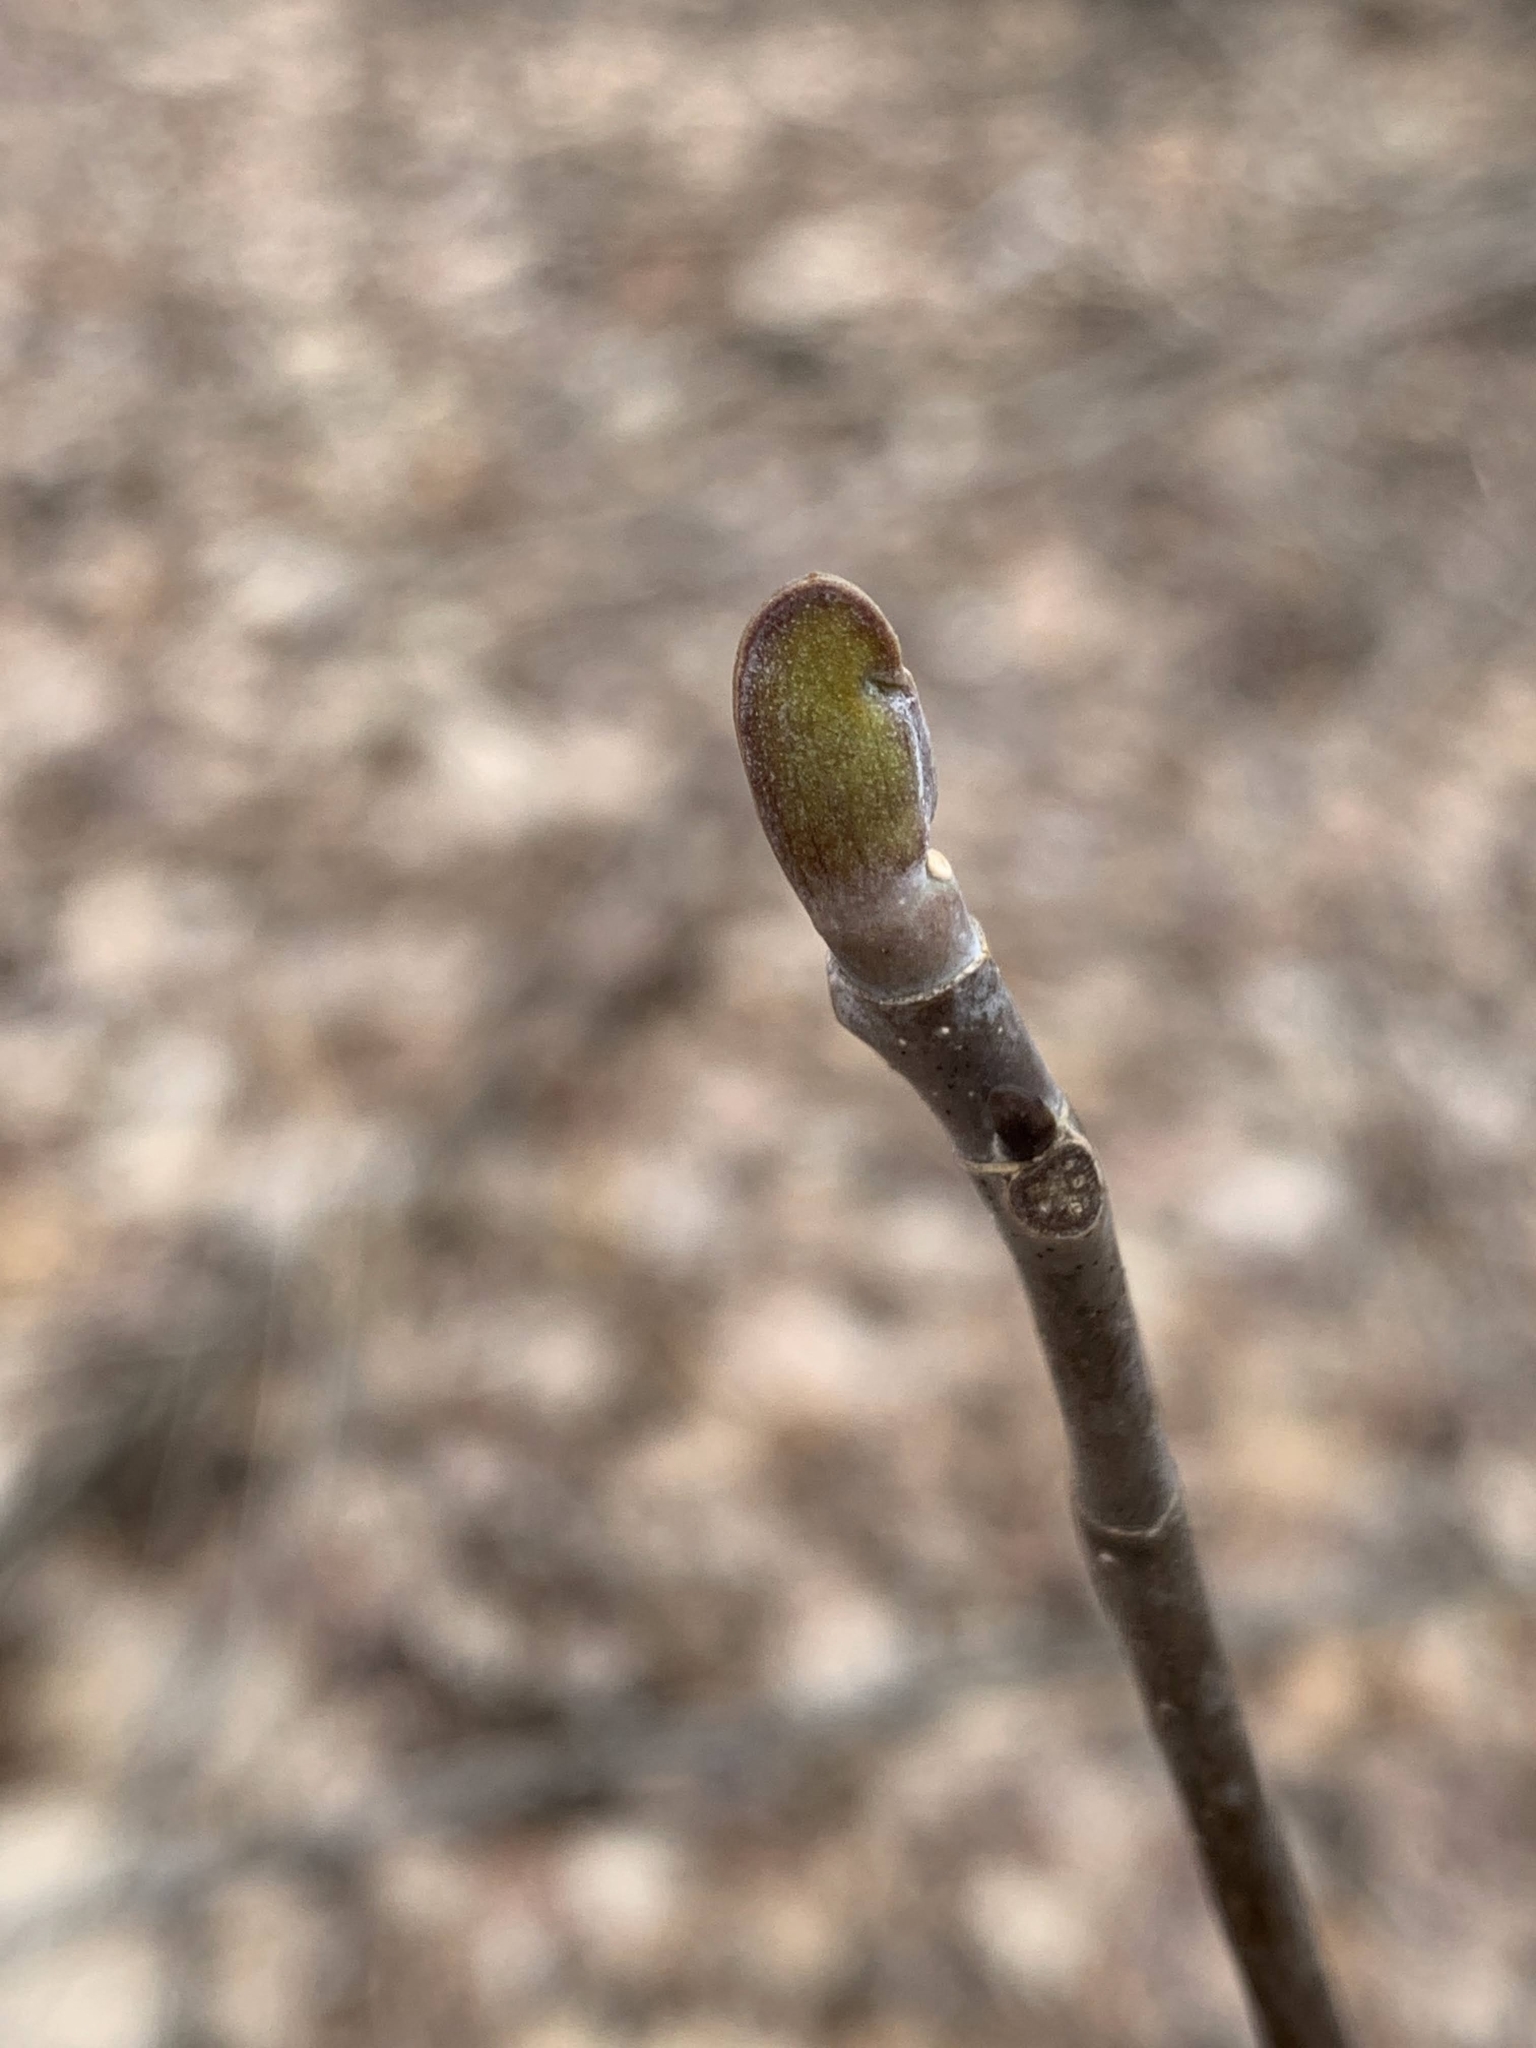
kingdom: Plantae
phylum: Tracheophyta
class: Magnoliopsida
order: Magnoliales
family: Magnoliaceae
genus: Liriodendron
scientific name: Liriodendron tulipifera
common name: Tulip tree
